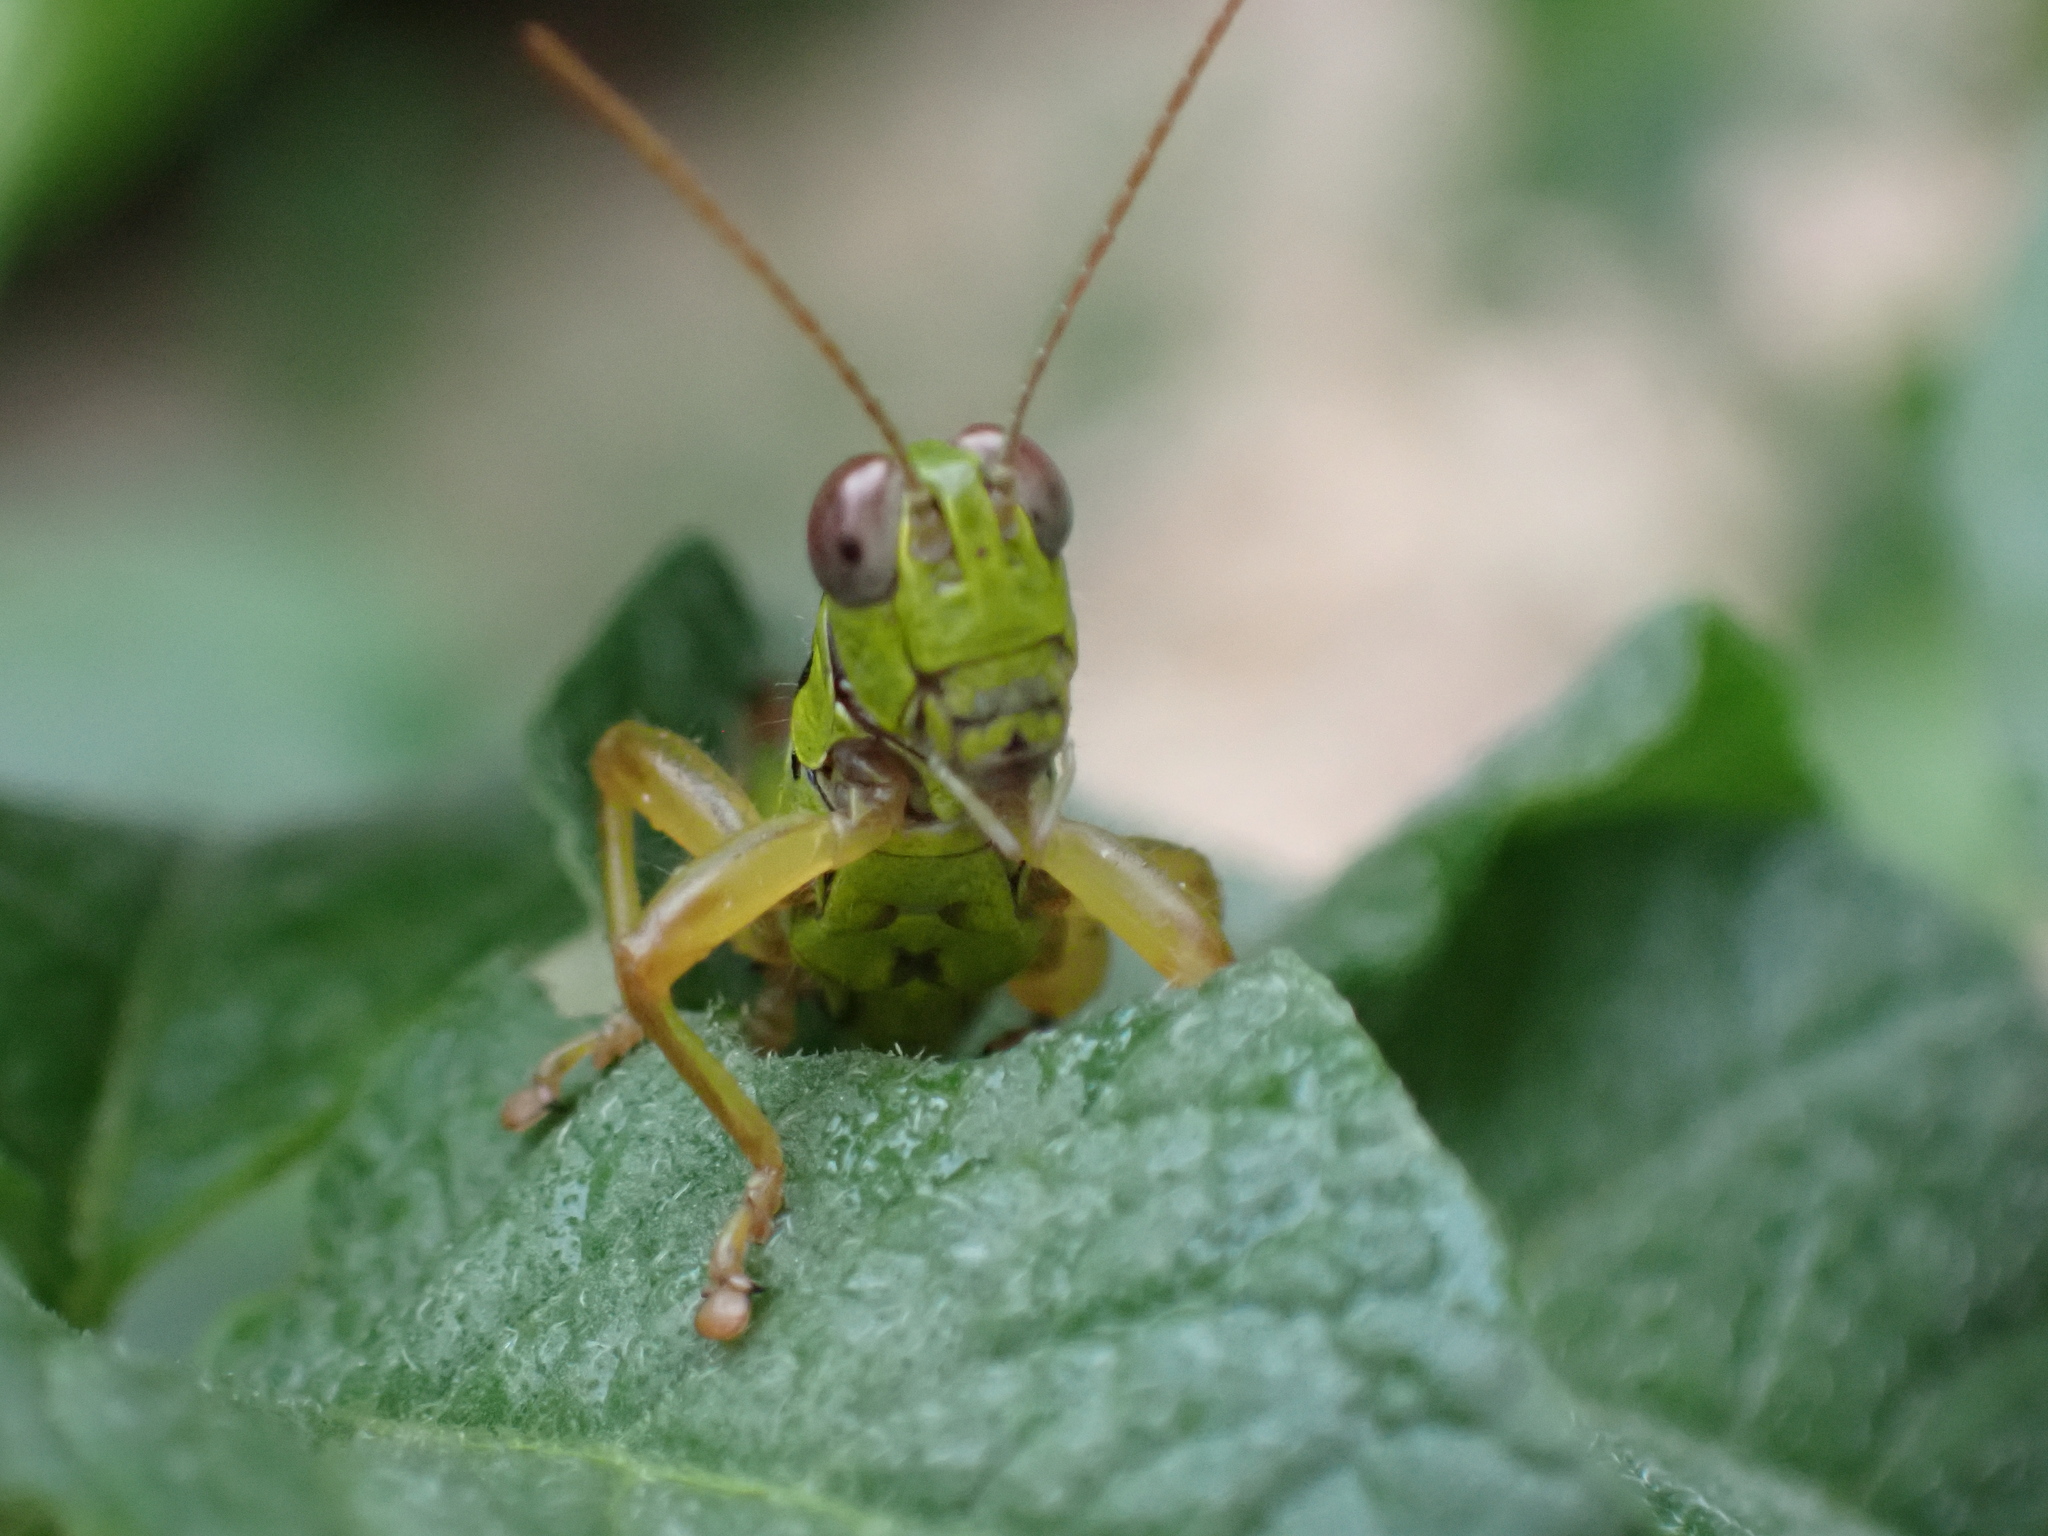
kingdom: Animalia
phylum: Arthropoda
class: Insecta
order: Orthoptera
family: Acrididae
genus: Micropodisma
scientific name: Micropodisma salamandra
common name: Foothill mountain grasshopper
